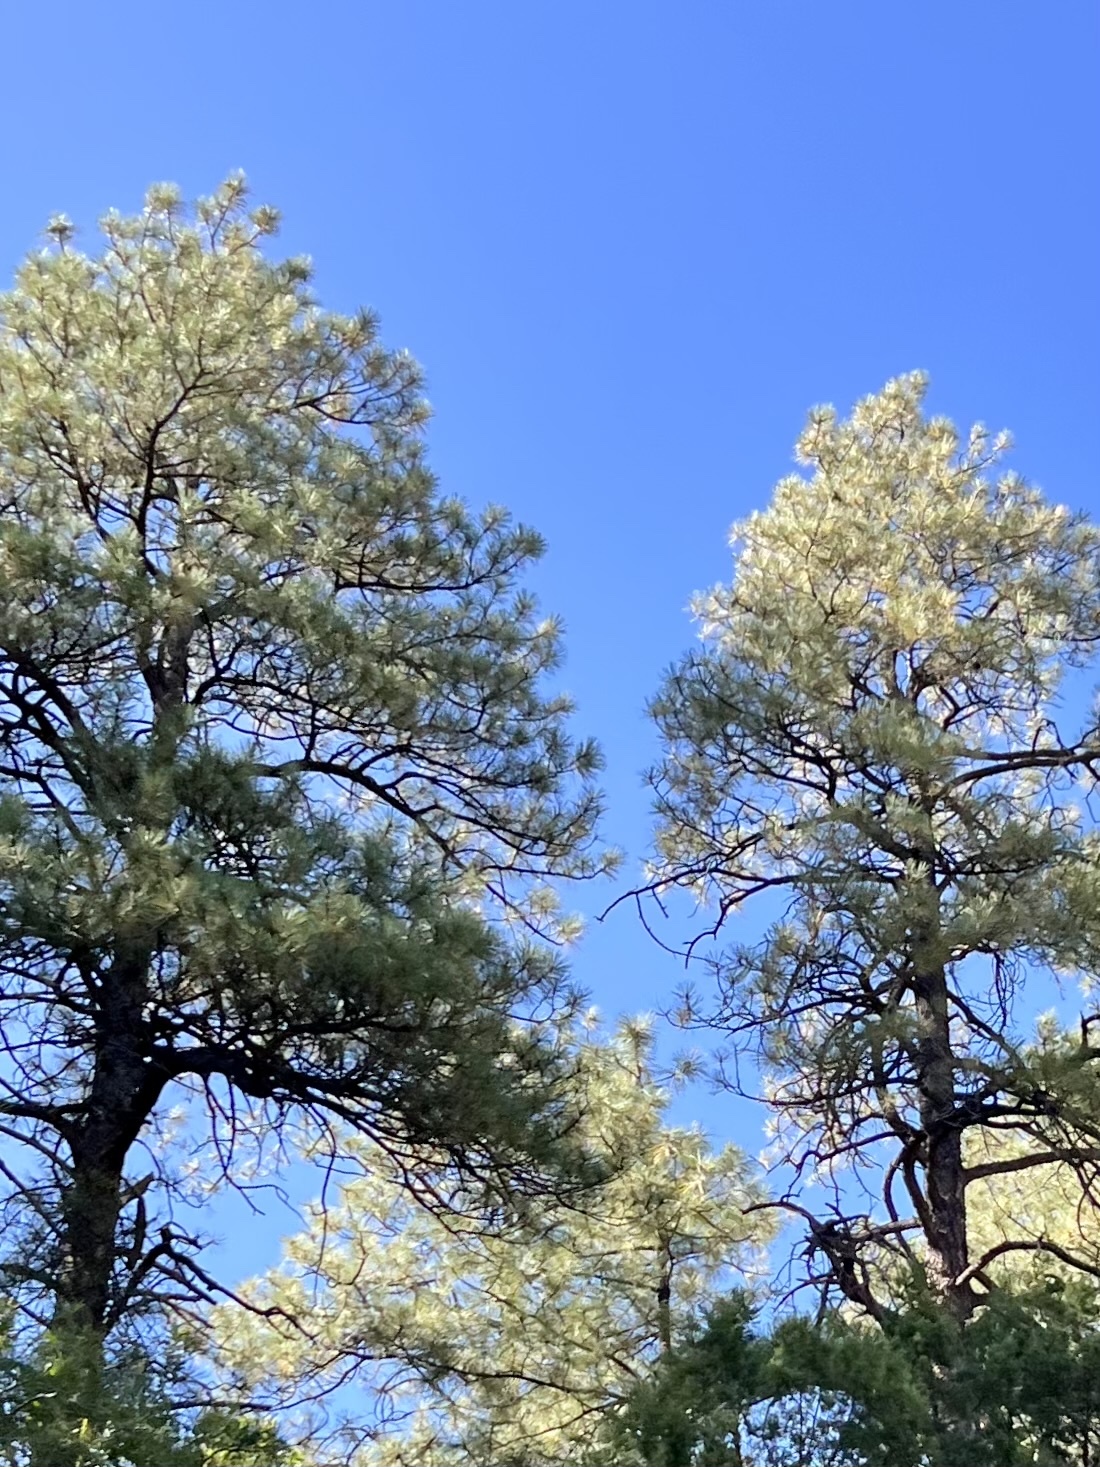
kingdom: Plantae
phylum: Tracheophyta
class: Pinopsida
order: Pinales
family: Pinaceae
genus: Pinus
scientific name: Pinus ponderosa
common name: Western yellow-pine
